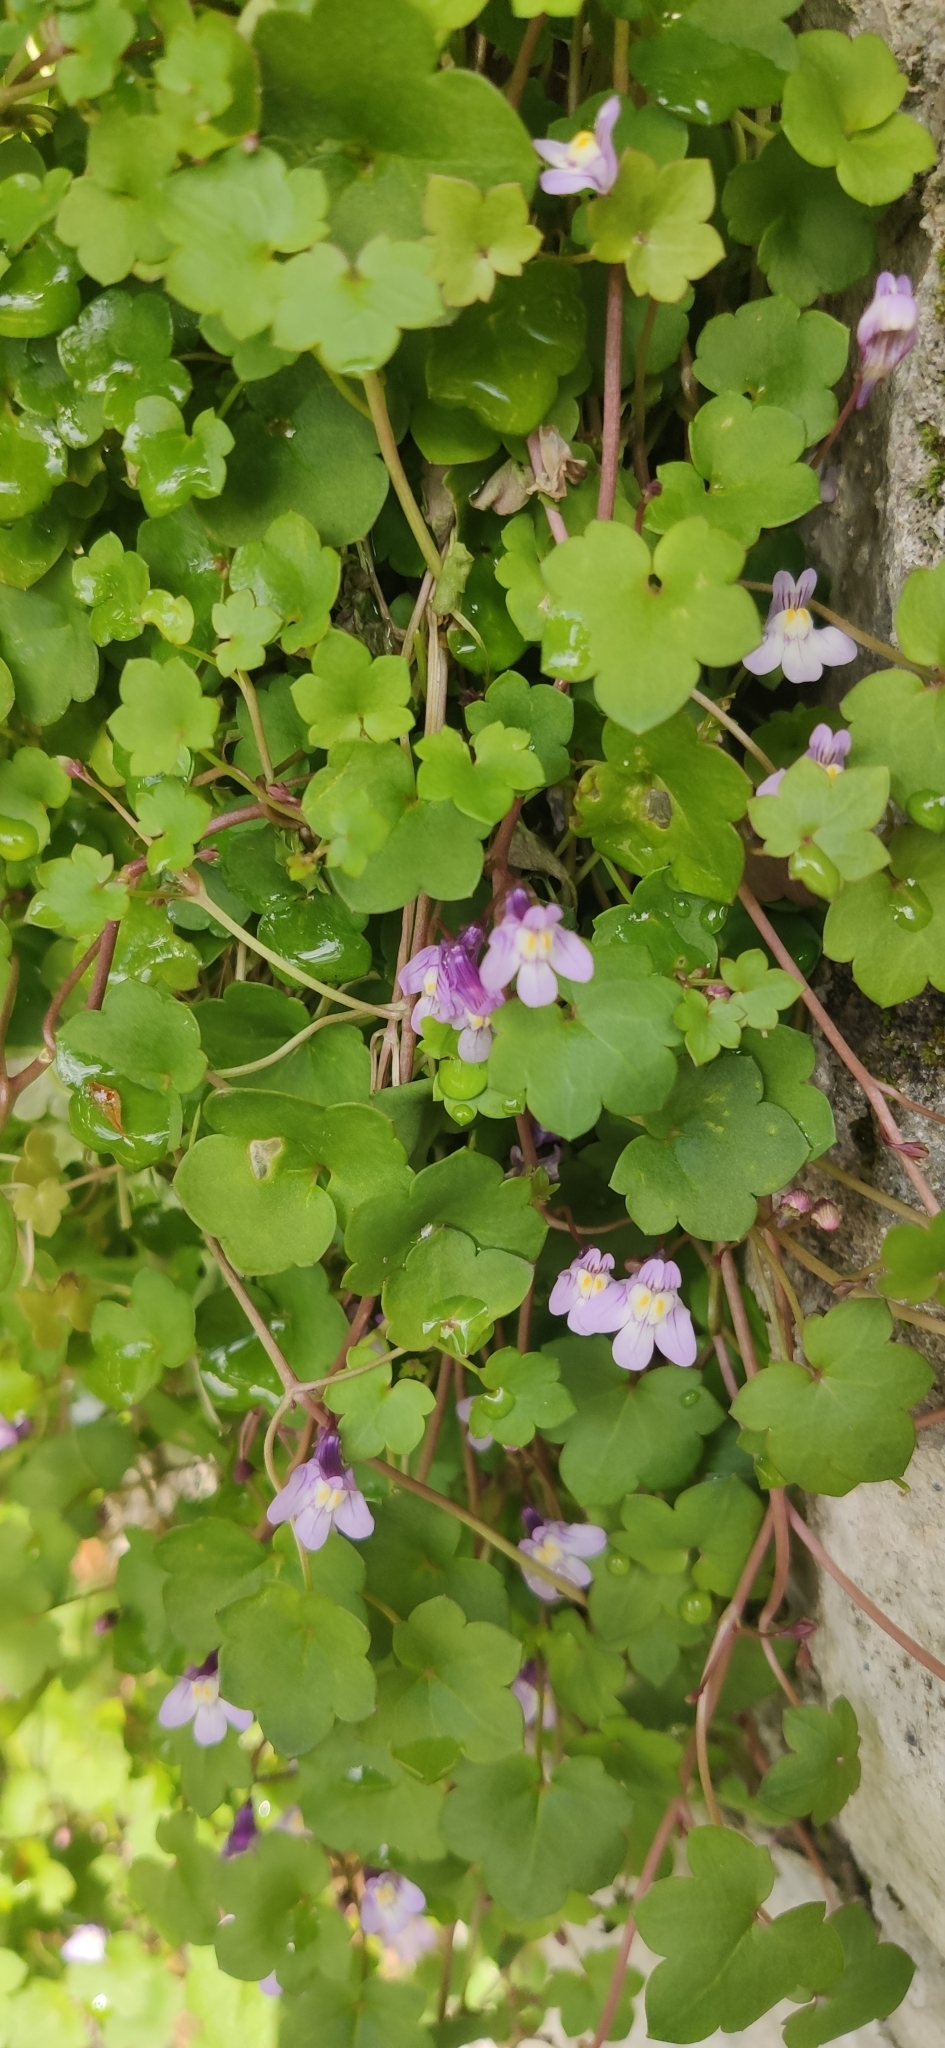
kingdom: Plantae
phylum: Tracheophyta
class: Magnoliopsida
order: Lamiales
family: Plantaginaceae
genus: Cymbalaria
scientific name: Cymbalaria muralis
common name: Ivy-leaved toadflax
